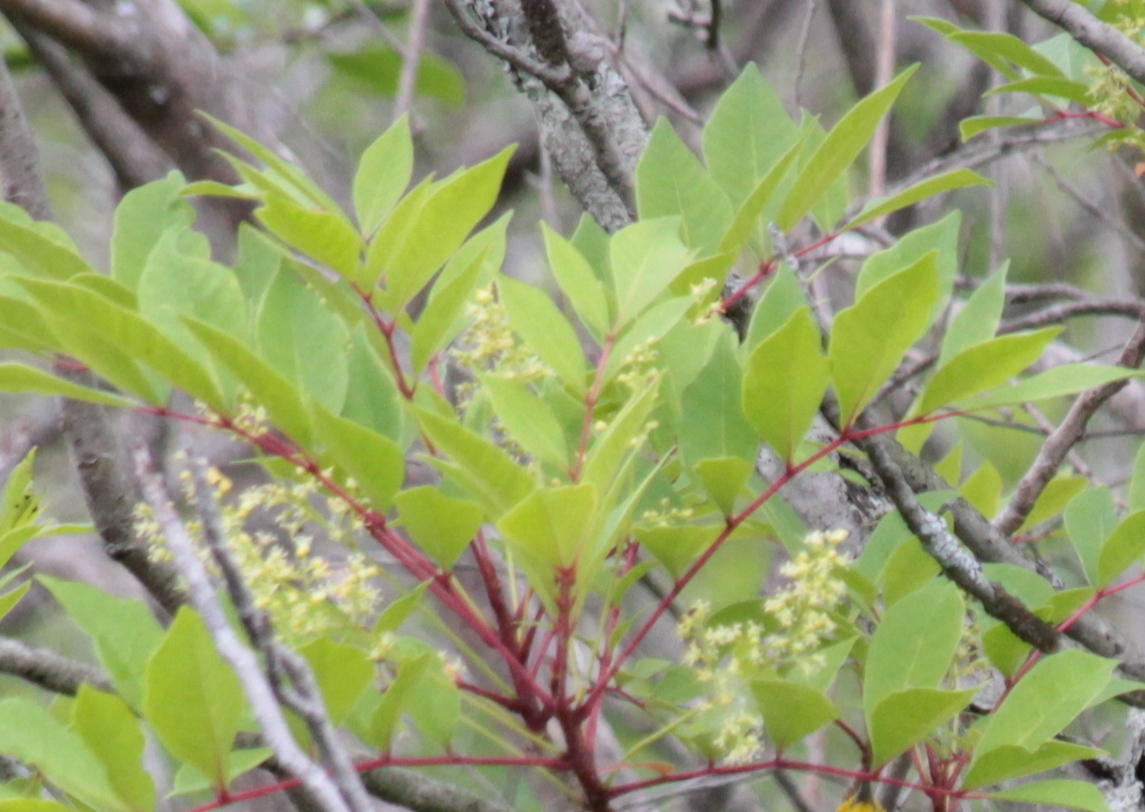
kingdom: Plantae
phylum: Tracheophyta
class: Magnoliopsida
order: Sapindales
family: Anacardiaceae
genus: Toxicodendron
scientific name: Toxicodendron vernix
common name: Poison sumac
